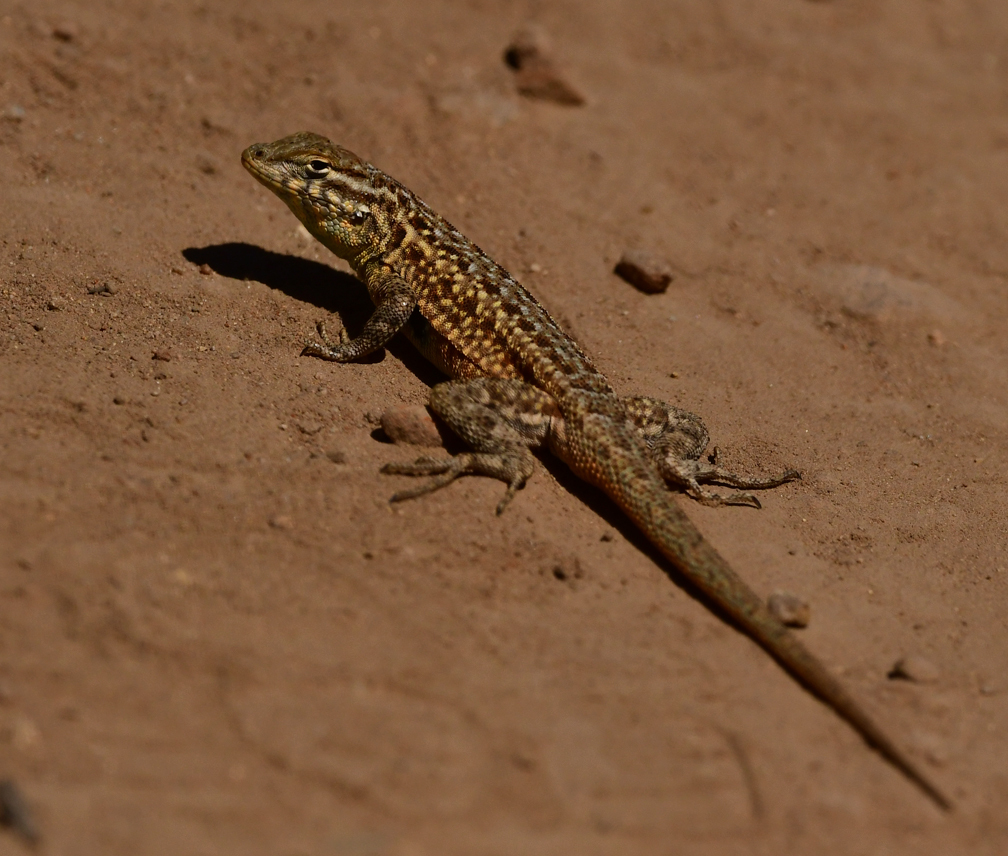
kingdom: Animalia
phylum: Chordata
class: Squamata
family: Phrynosomatidae
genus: Uta
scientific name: Uta stansburiana
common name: Side-blotched lizard
